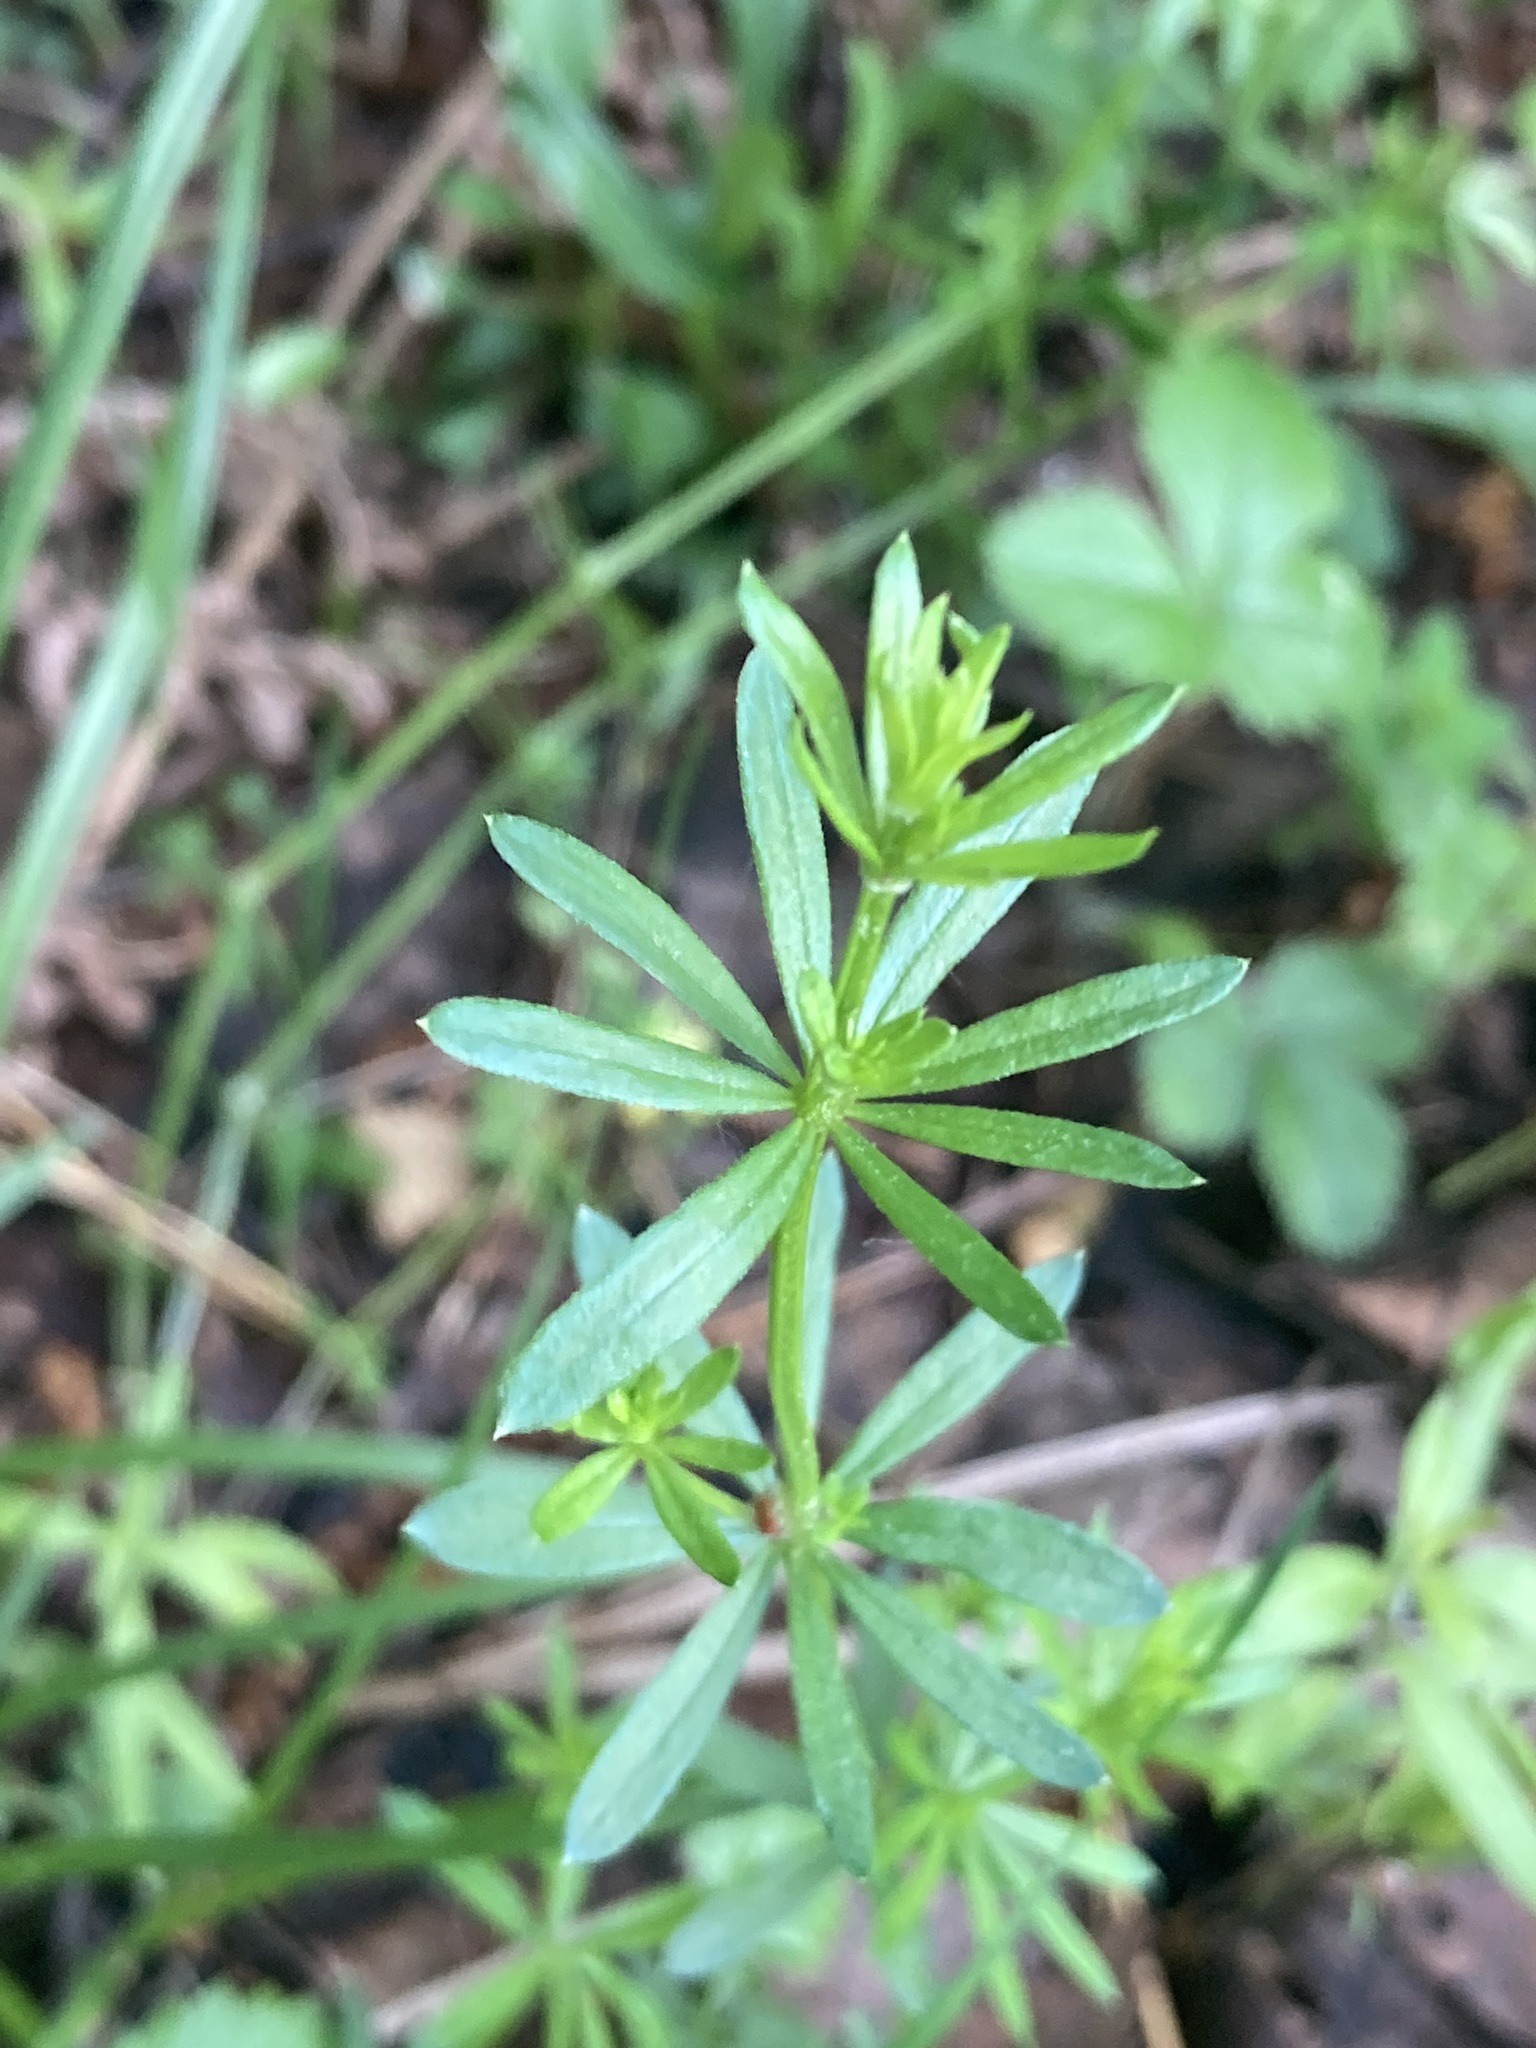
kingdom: Plantae
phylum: Tracheophyta
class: Magnoliopsida
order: Gentianales
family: Rubiaceae
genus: Galium
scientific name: Galium mollugo
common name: Hedge bedstraw
